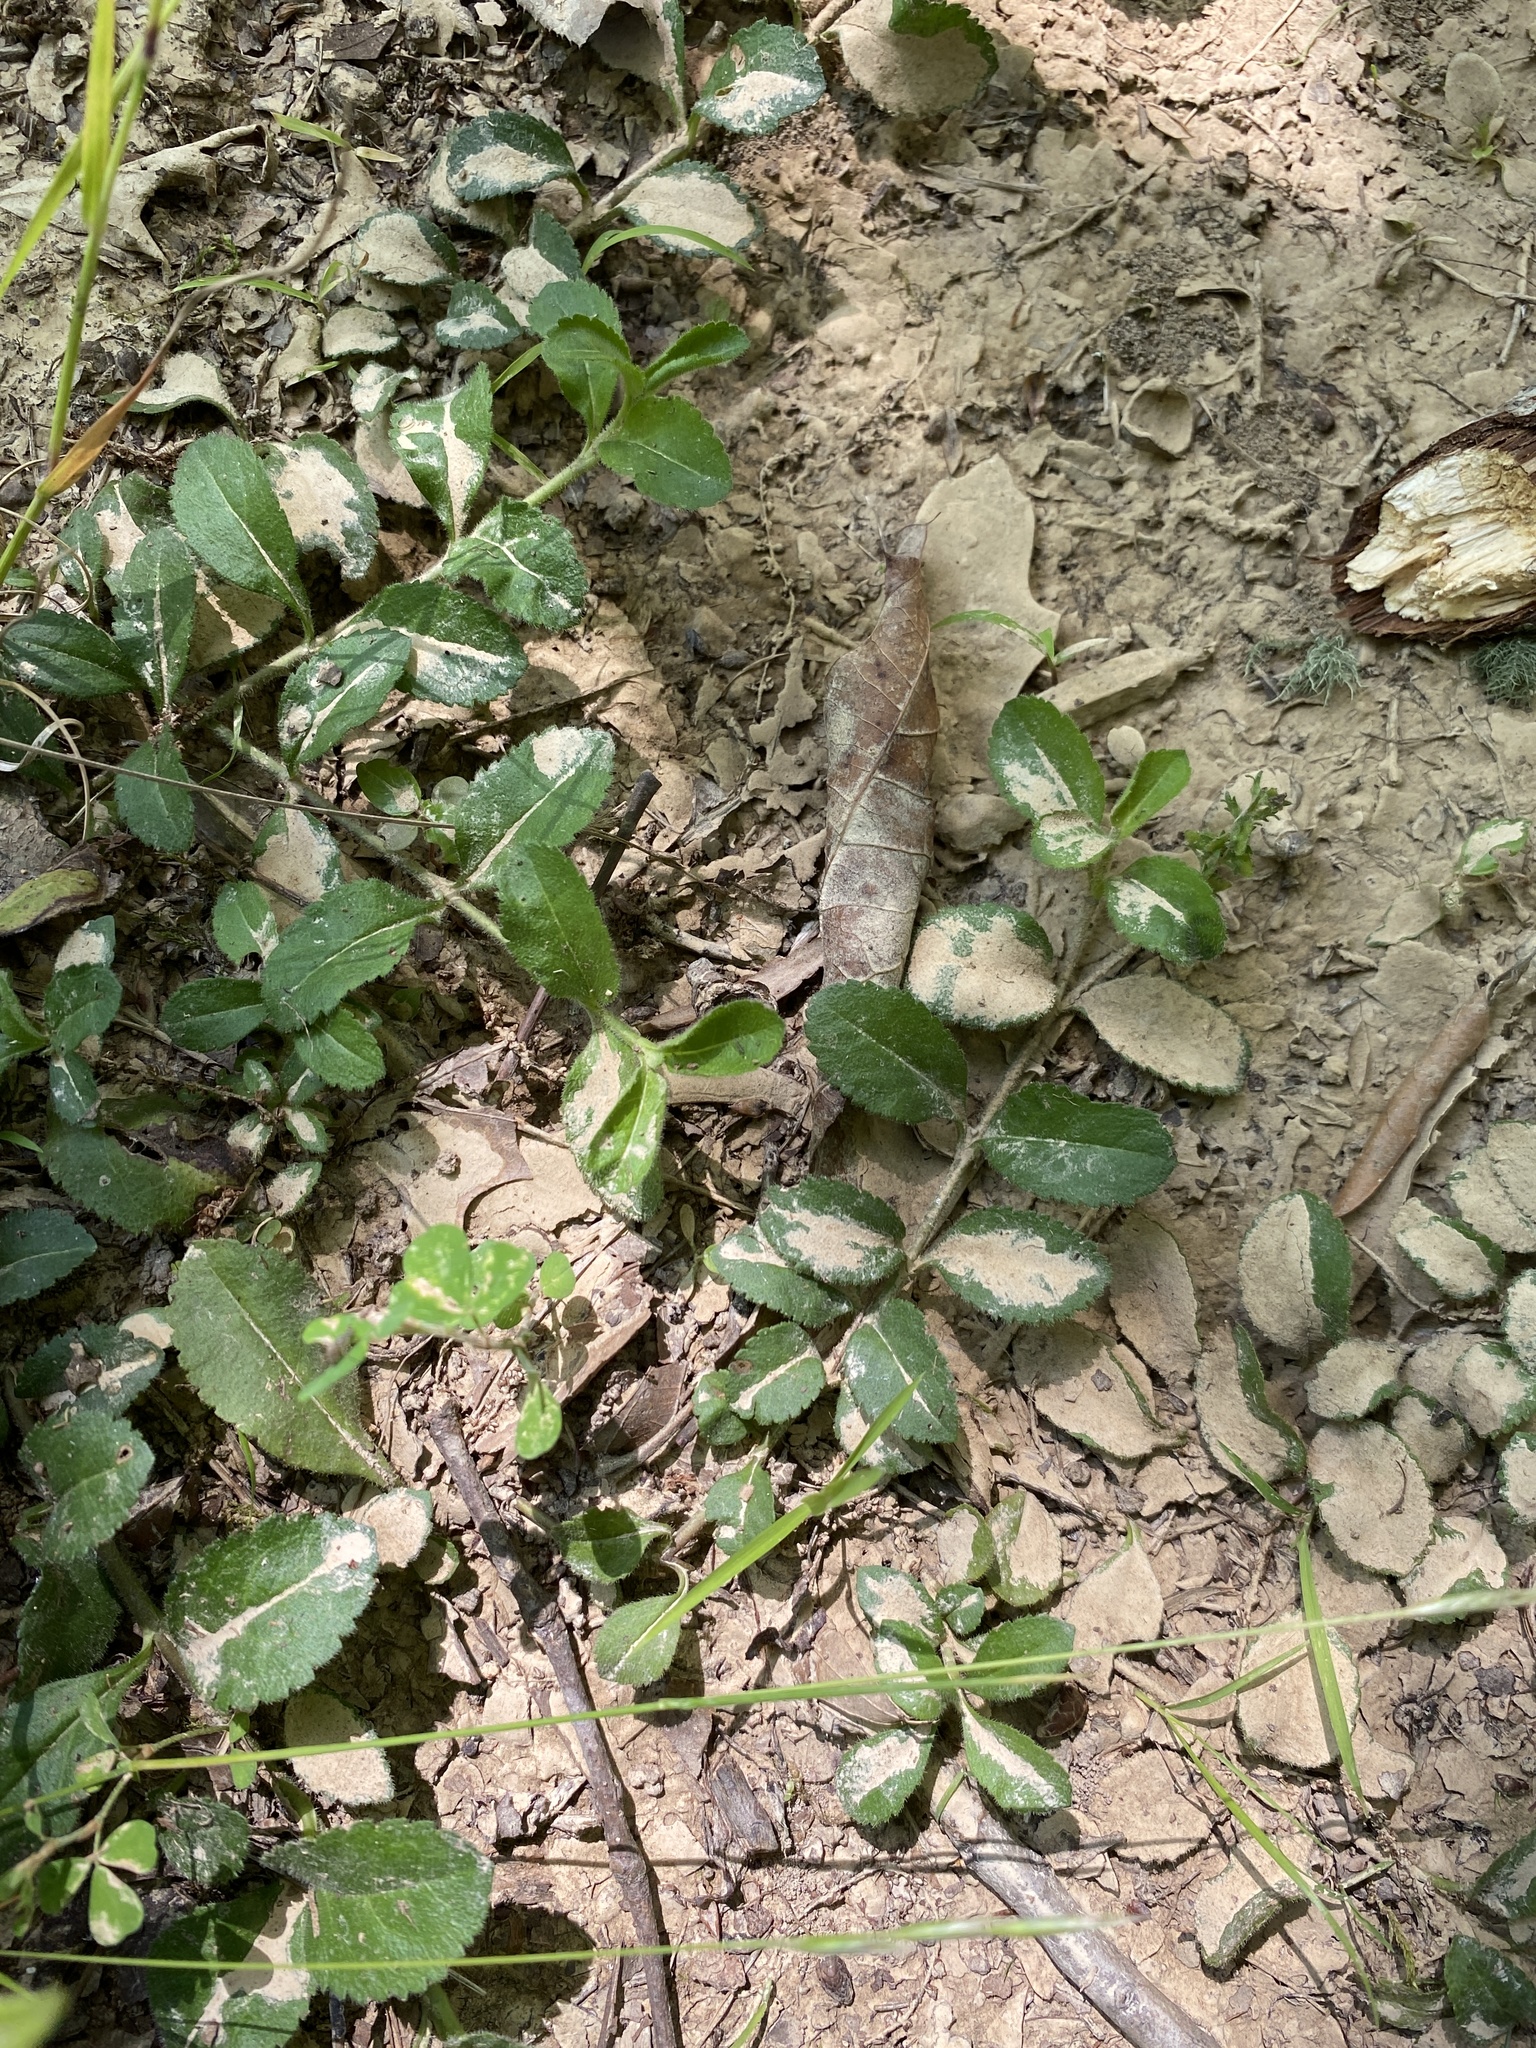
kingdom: Plantae
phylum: Tracheophyta
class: Magnoliopsida
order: Lamiales
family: Plantaginaceae
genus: Veronica
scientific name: Veronica officinalis
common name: Common speedwell
